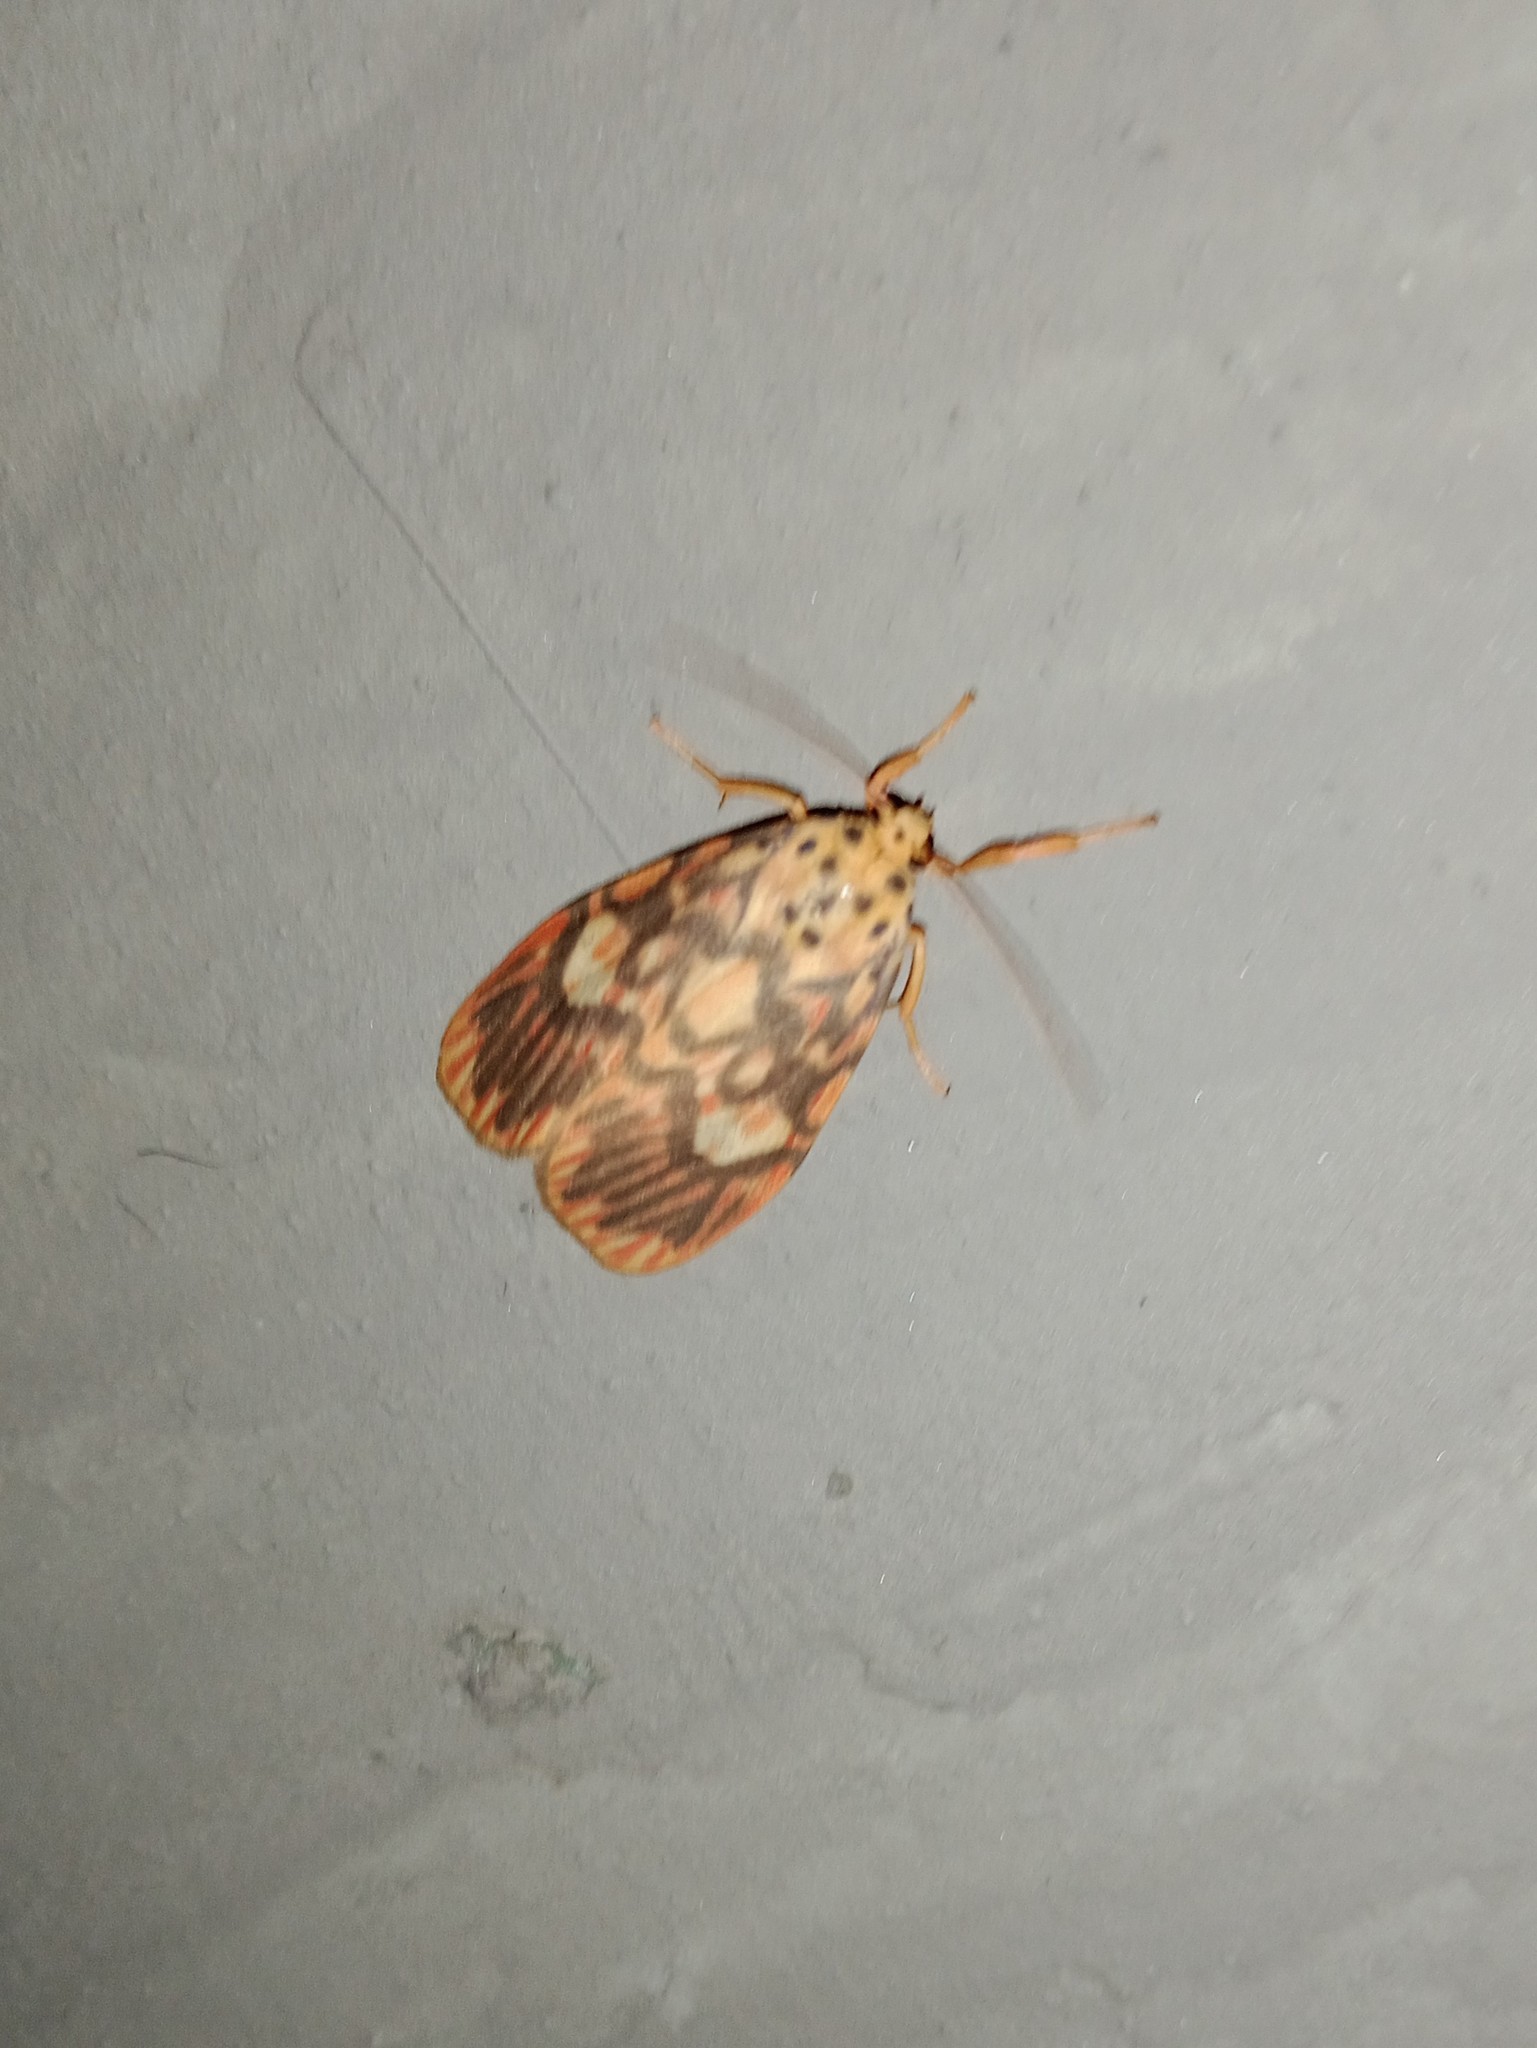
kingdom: Animalia
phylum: Arthropoda
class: Insecta
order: Lepidoptera
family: Erebidae
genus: Ammatho
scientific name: Ammatho cuneonotatus
